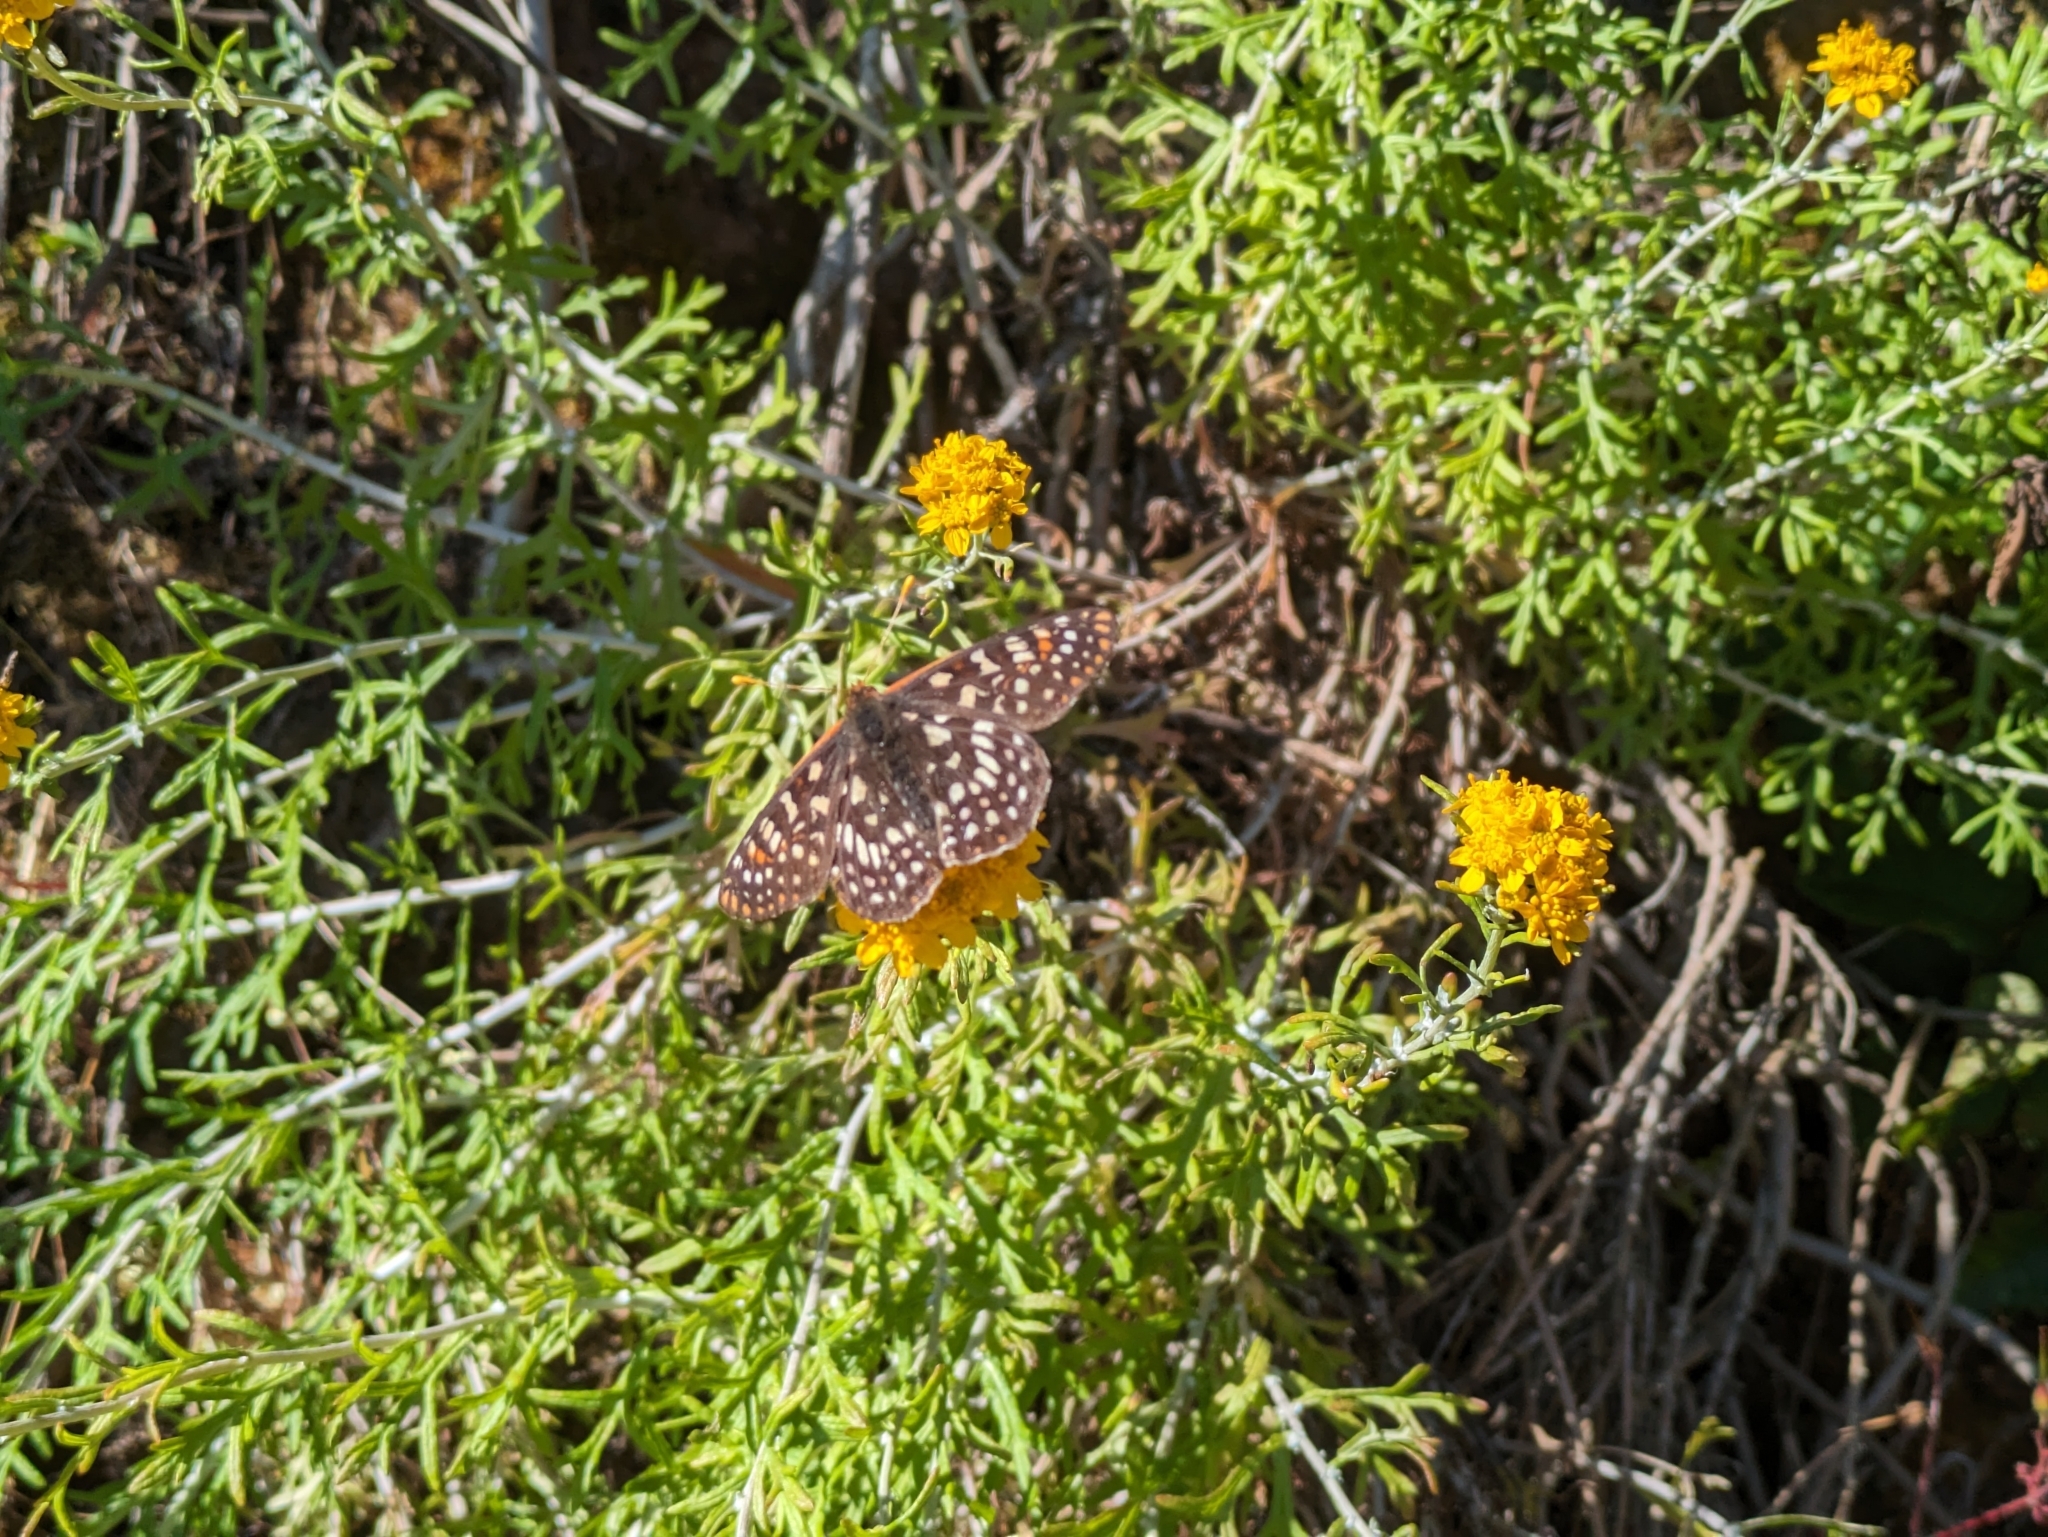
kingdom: Animalia
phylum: Arthropoda
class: Insecta
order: Lepidoptera
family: Nymphalidae
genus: Occidryas
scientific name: Occidryas chalcedona
